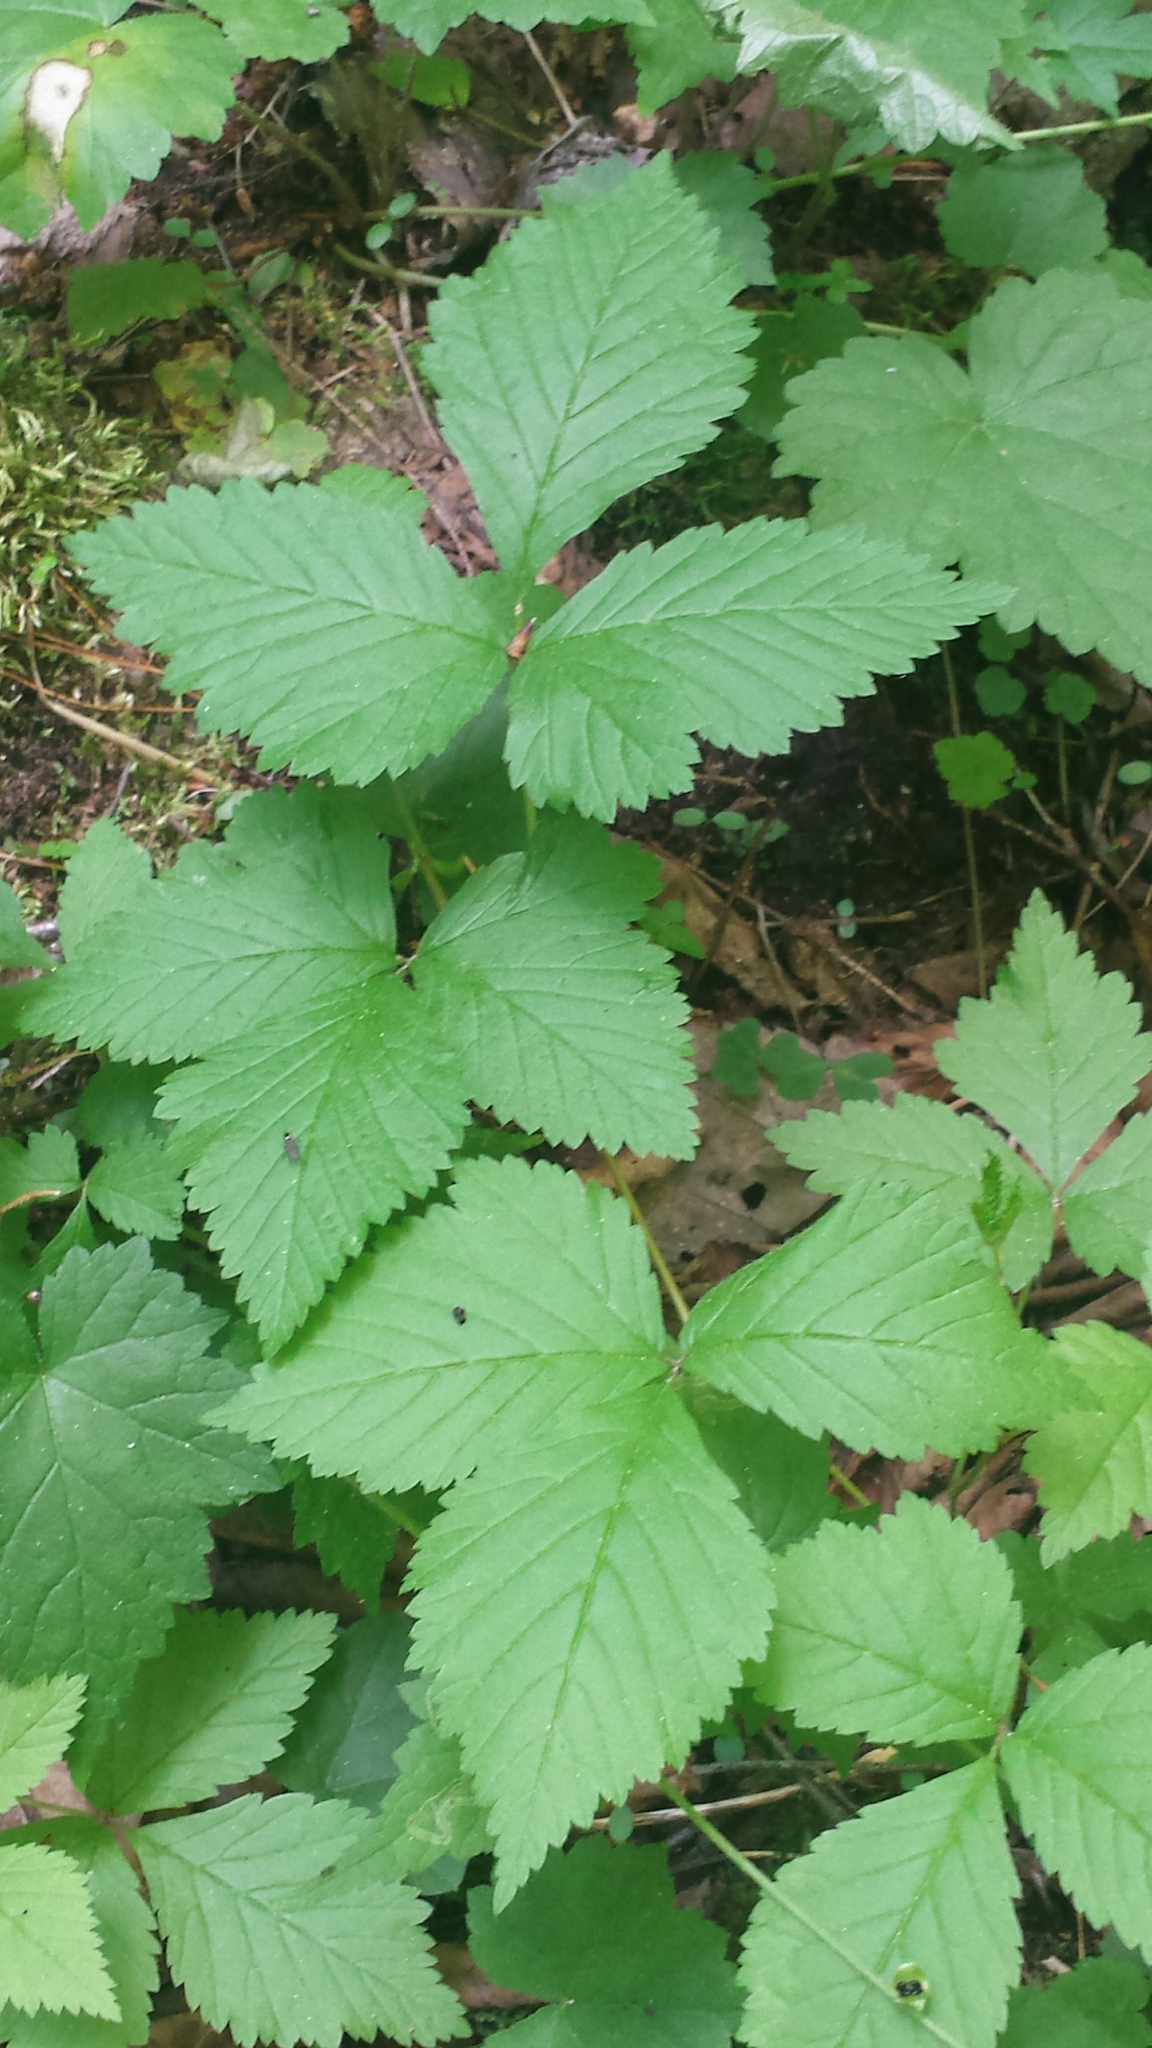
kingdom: Plantae
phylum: Tracheophyta
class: Magnoliopsida
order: Rosales
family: Rosaceae
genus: Rubus
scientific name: Rubus pubescens
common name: Dwarf raspberry
